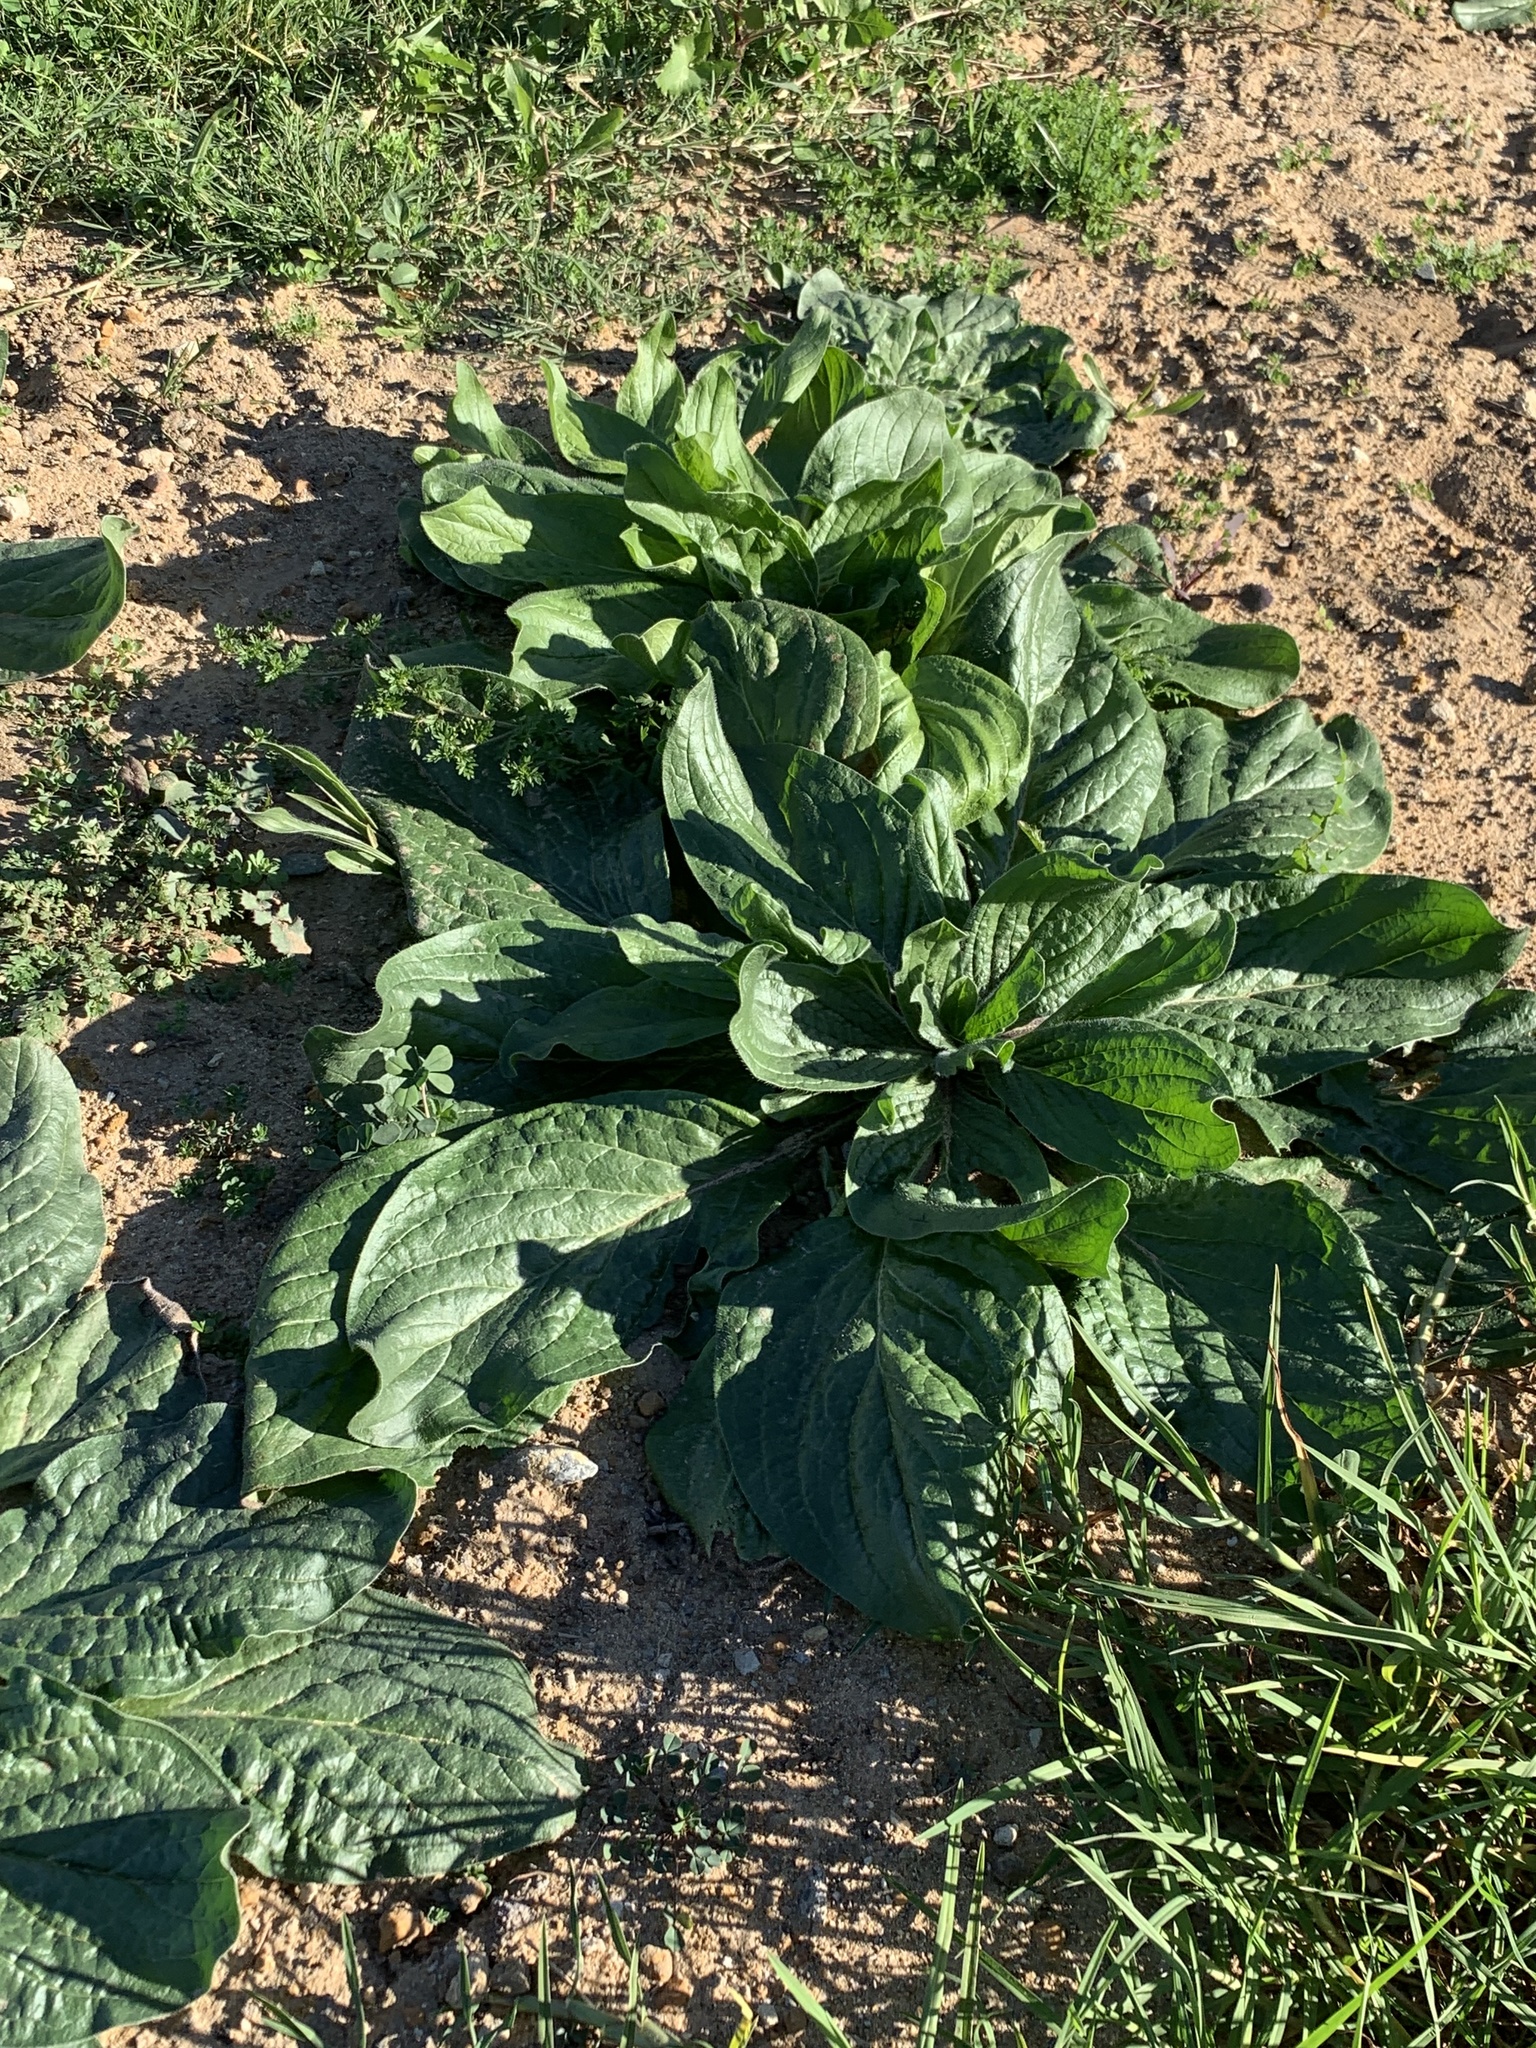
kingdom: Plantae
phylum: Tracheophyta
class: Magnoliopsida
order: Boraginales
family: Boraginaceae
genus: Echium
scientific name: Echium plantagineum
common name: Purple viper's-bugloss
